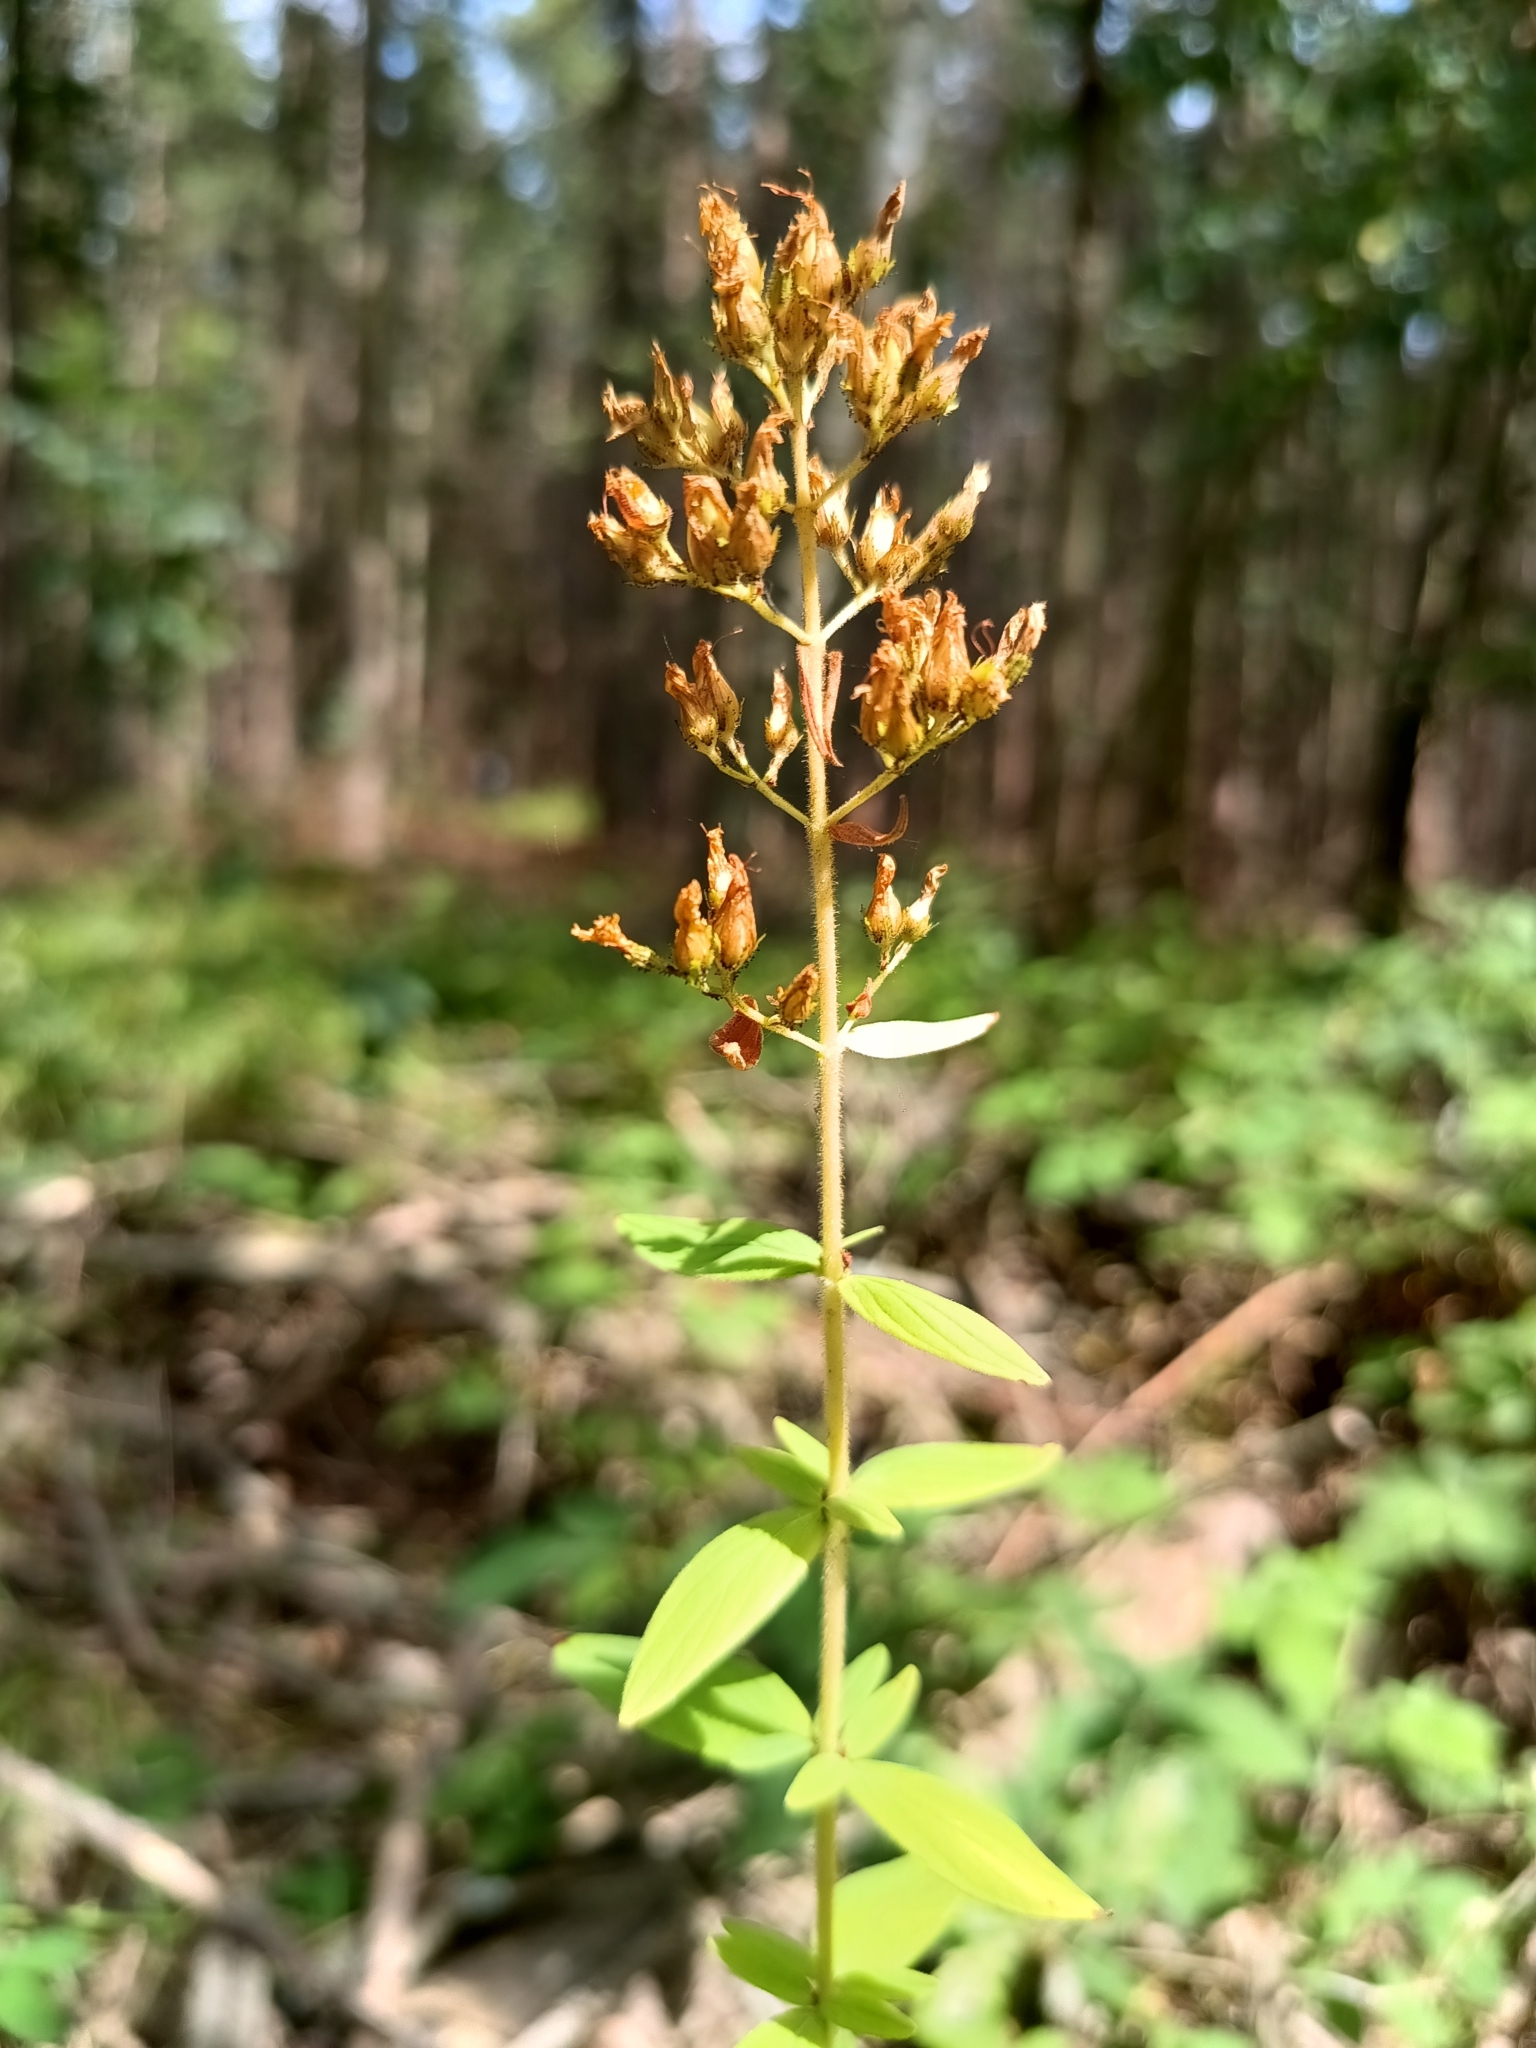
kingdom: Plantae
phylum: Tracheophyta
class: Magnoliopsida
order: Malpighiales
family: Hypericaceae
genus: Hypericum
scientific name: Hypericum hirsutum
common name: Hairy st. john's-wort
